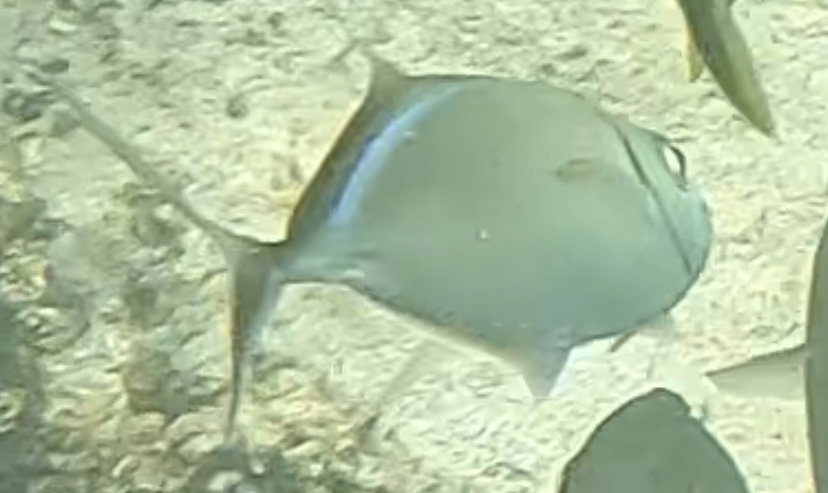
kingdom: Animalia
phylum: Chordata
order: Perciformes
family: Carangidae
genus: Caranx
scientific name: Caranx ruber
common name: Bar jack
